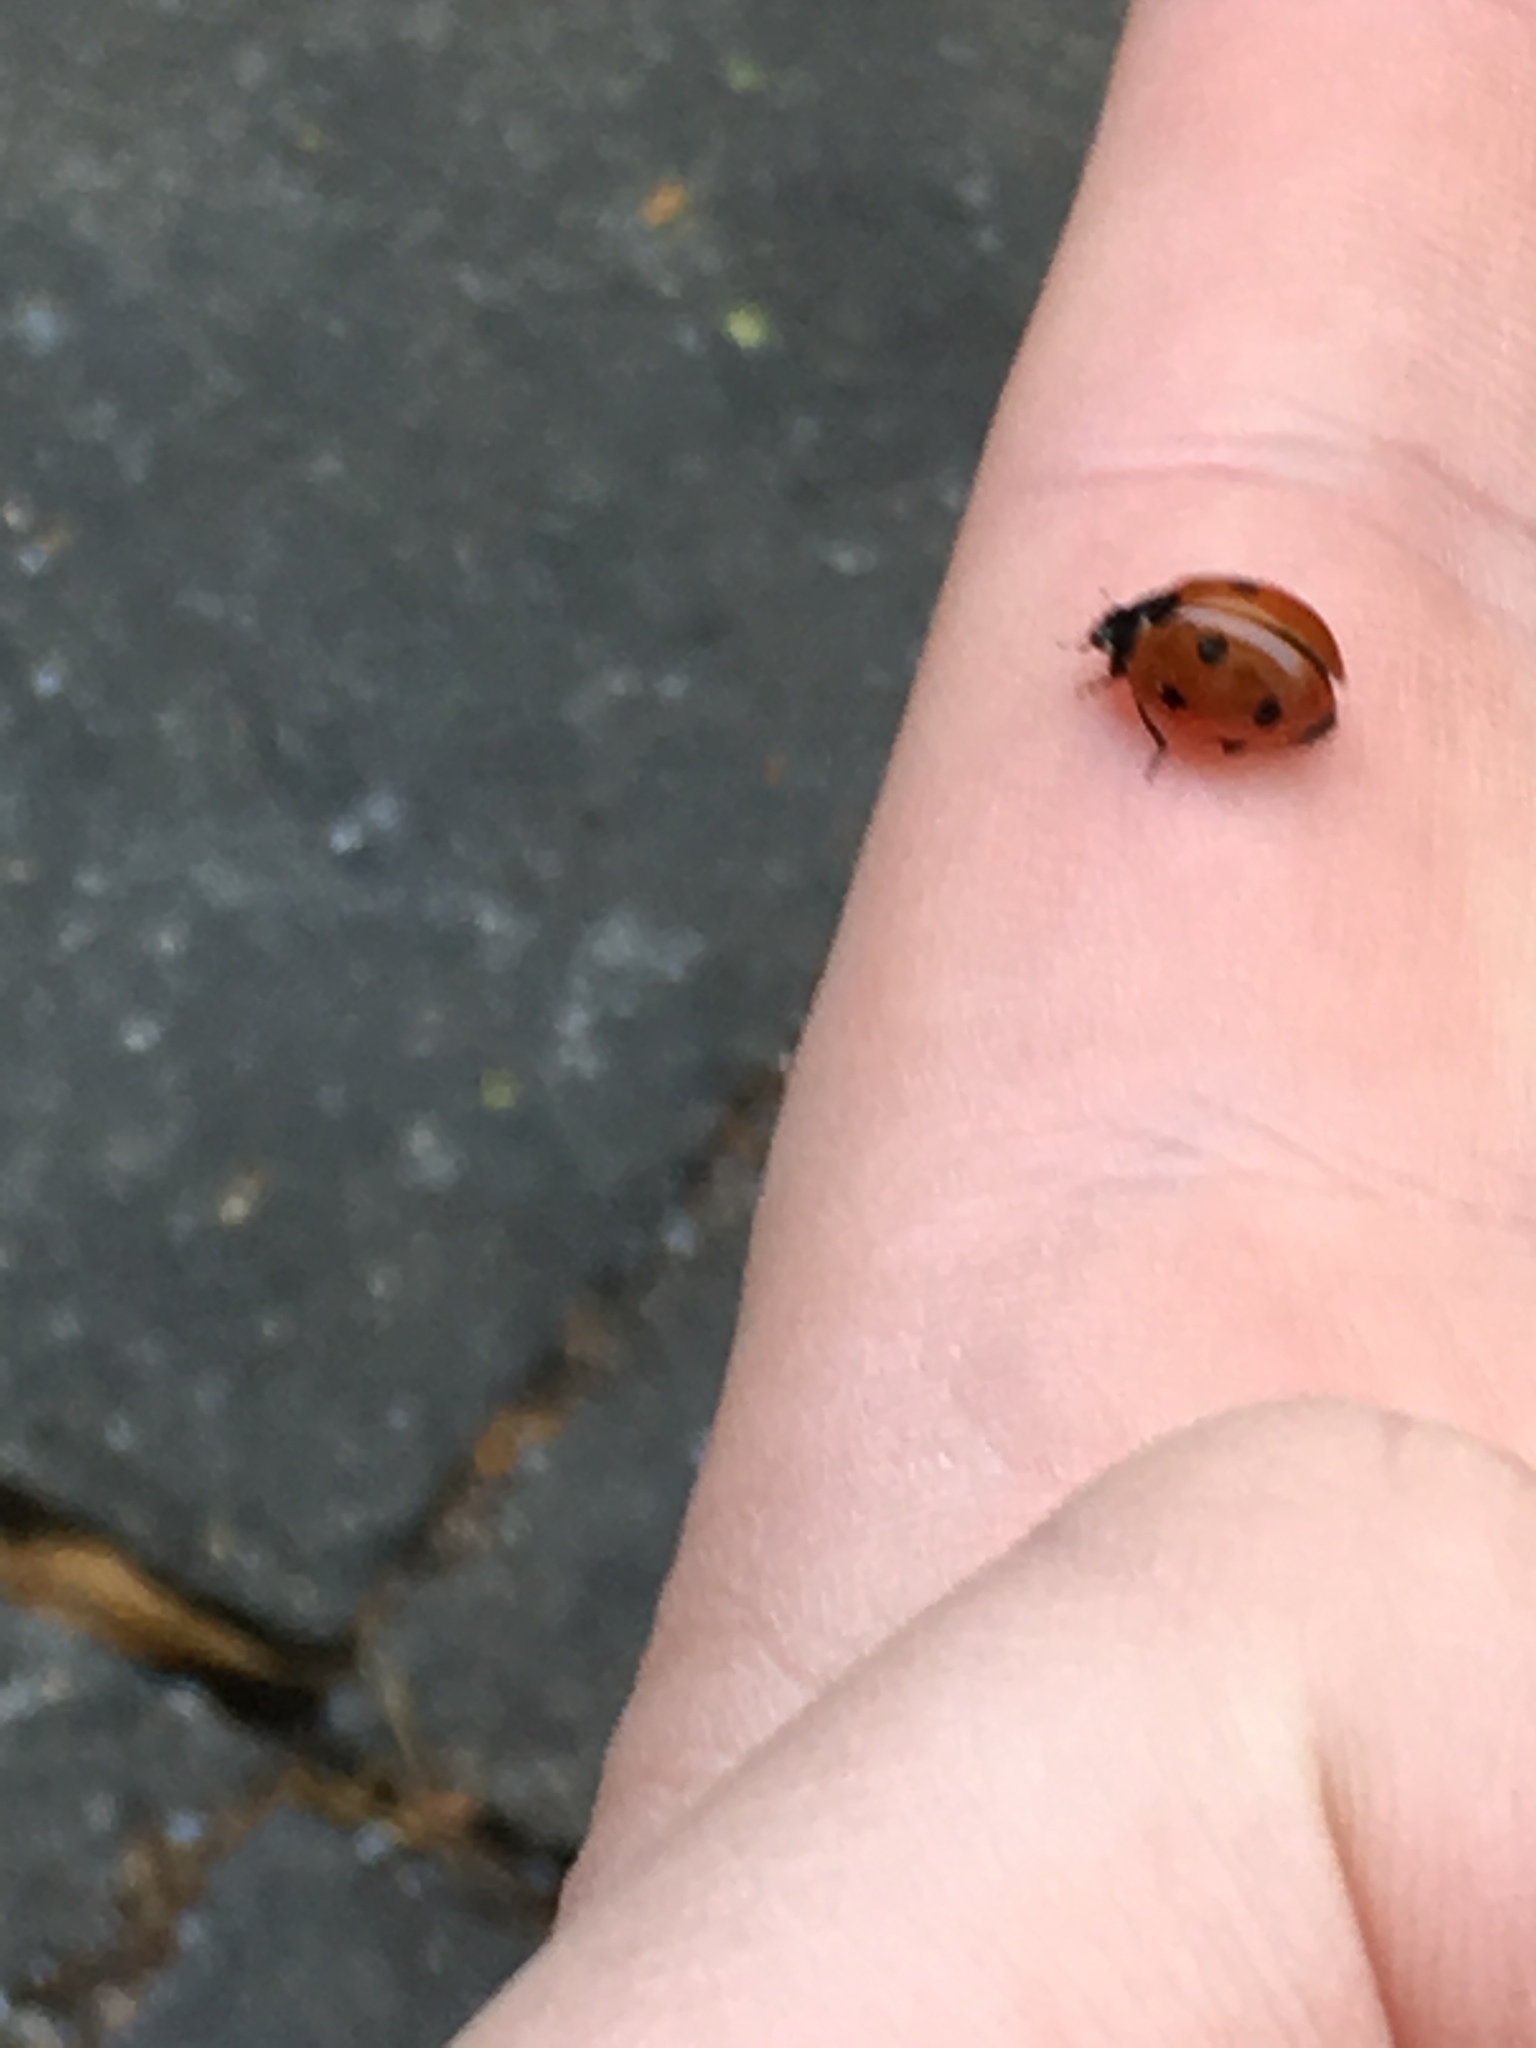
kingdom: Animalia
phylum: Arthropoda
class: Insecta
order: Coleoptera
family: Coccinellidae
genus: Coccinella
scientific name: Coccinella septempunctata
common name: Sevenspotted lady beetle
